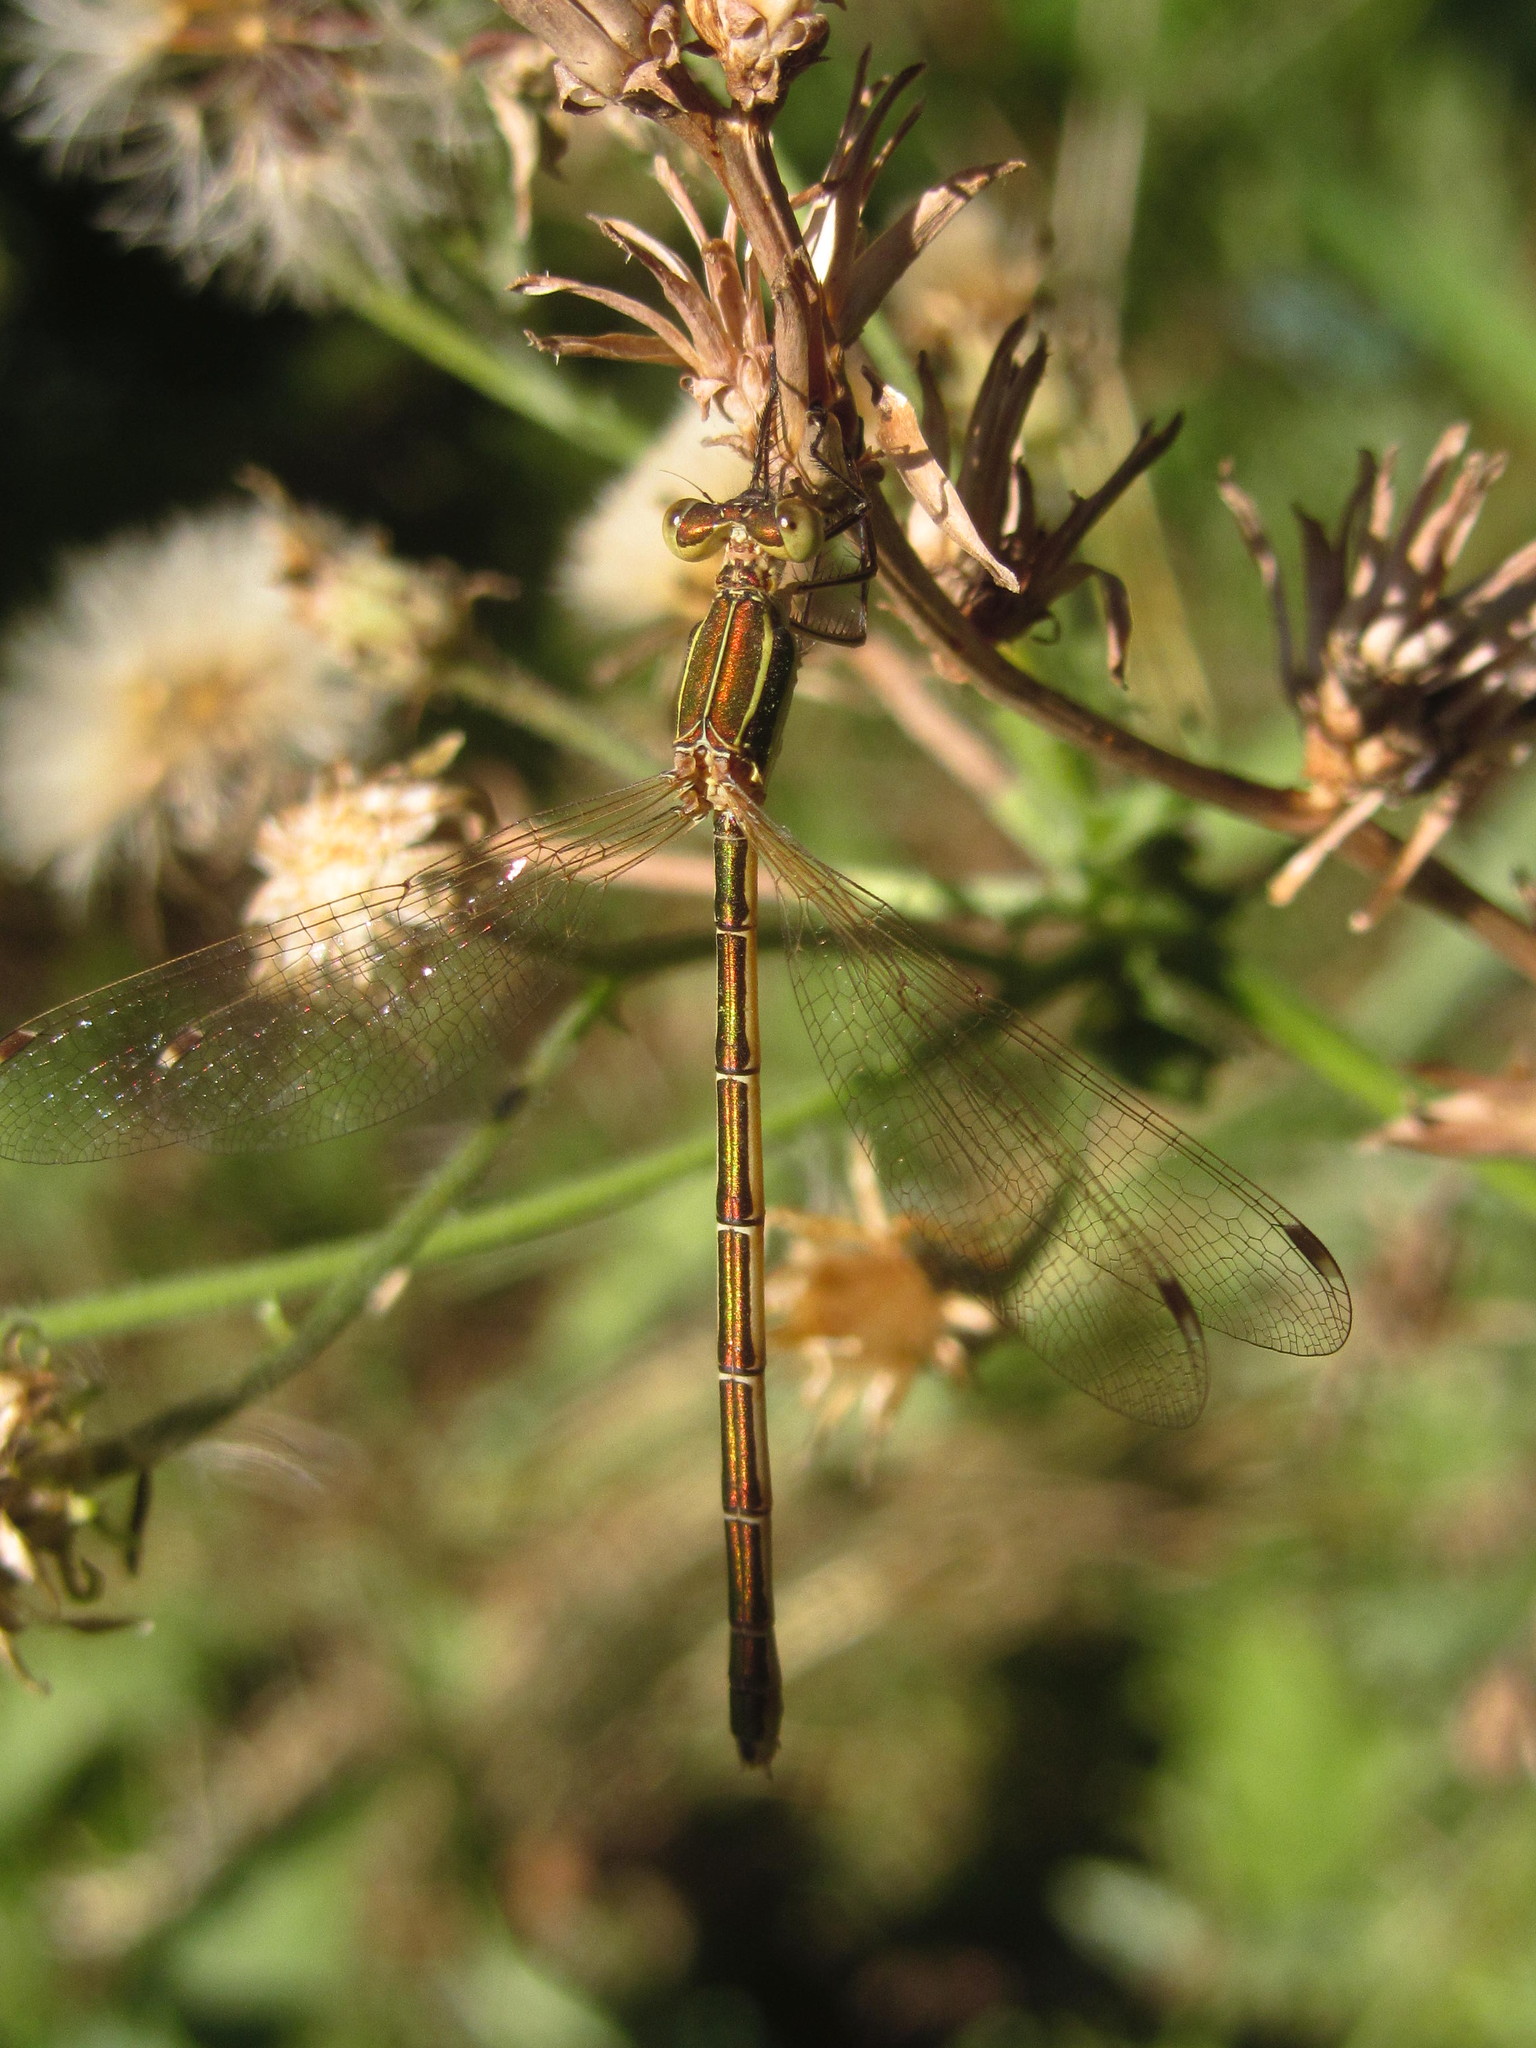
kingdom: Animalia
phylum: Arthropoda
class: Insecta
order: Odonata
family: Lestidae
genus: Lestes
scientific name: Lestes barbarus
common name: Migrant spreadwing
